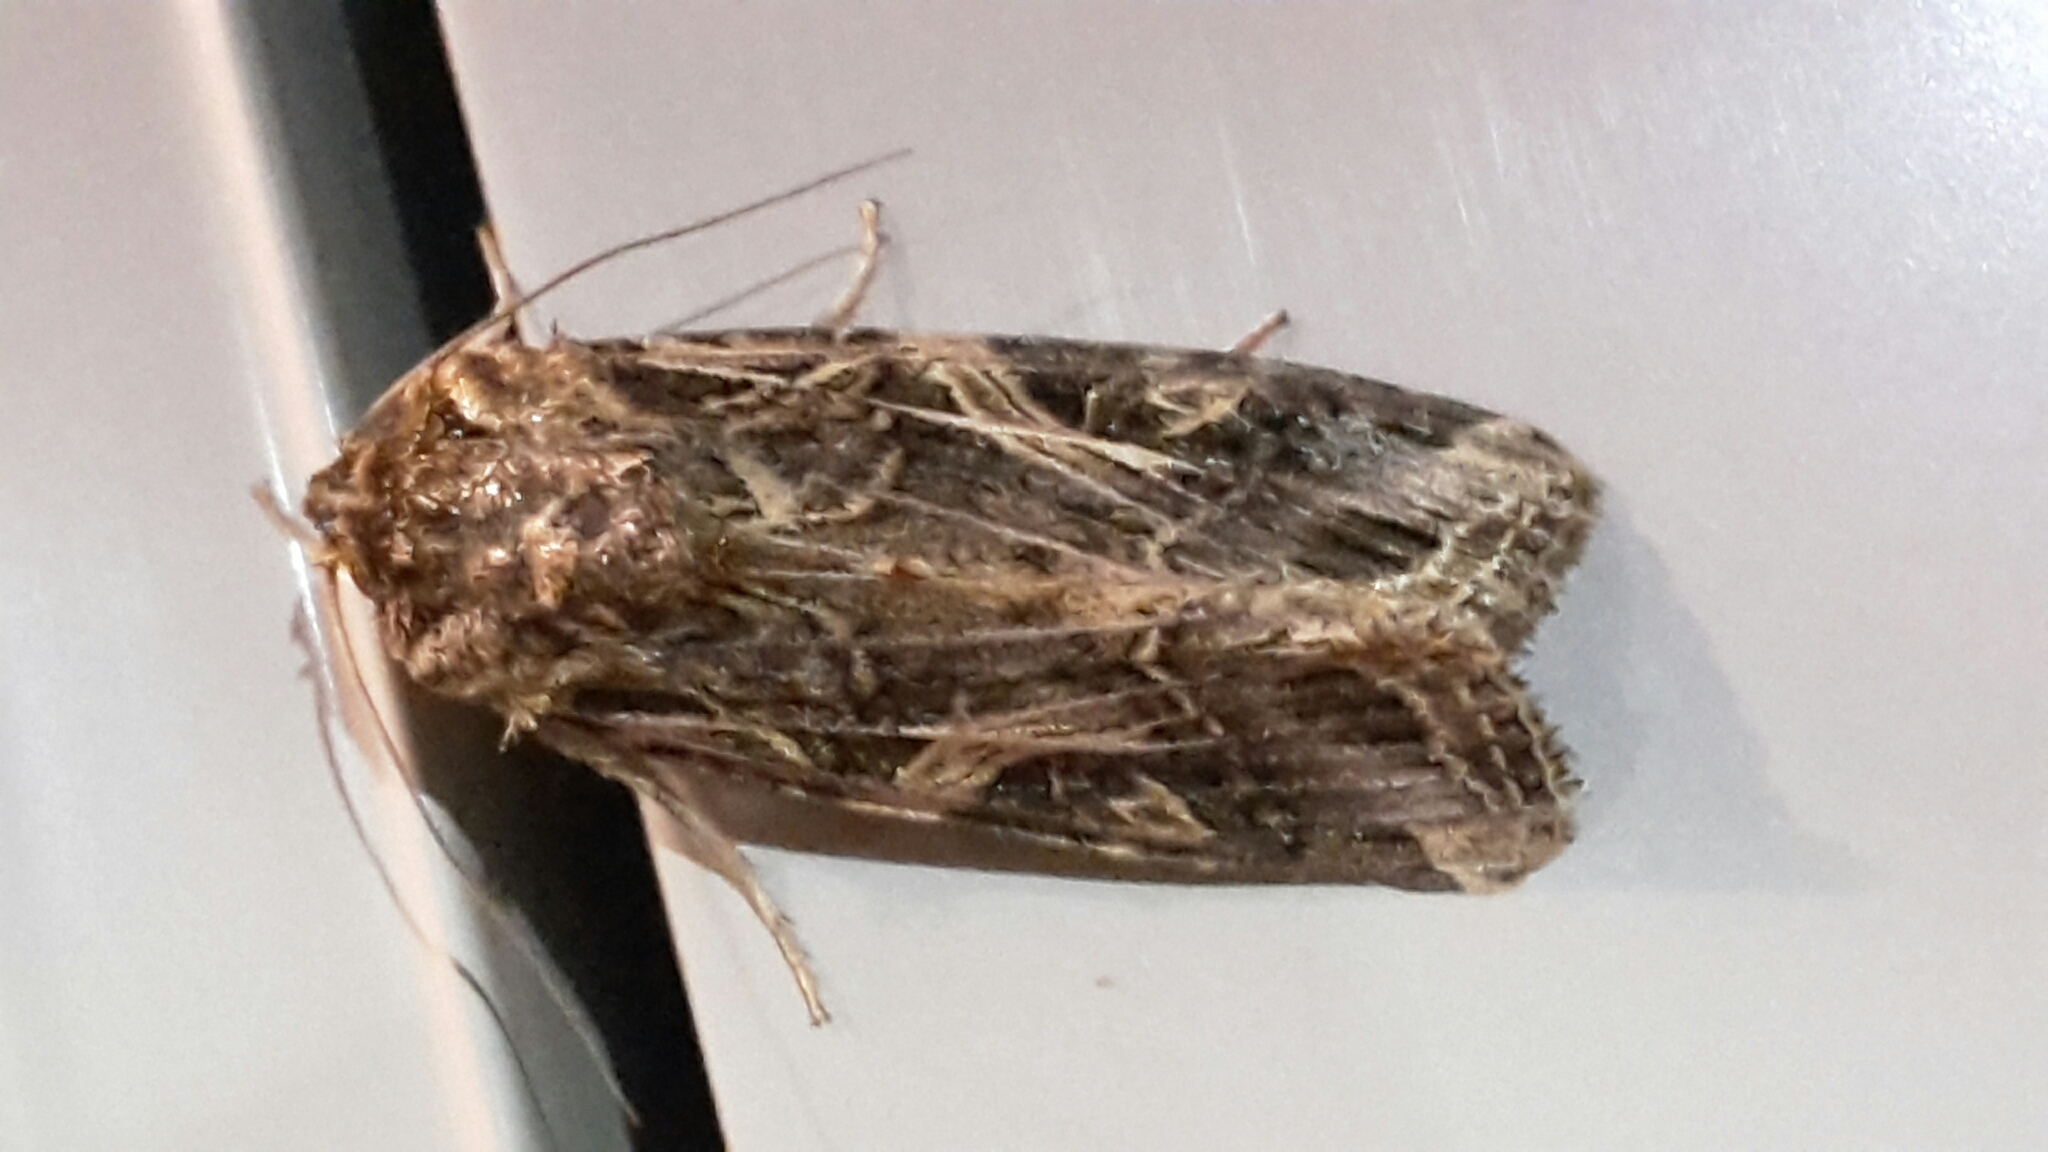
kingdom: Animalia
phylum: Arthropoda
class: Insecta
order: Lepidoptera
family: Noctuidae
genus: Spodoptera
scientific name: Spodoptera litura
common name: Asian cotton leafworm
